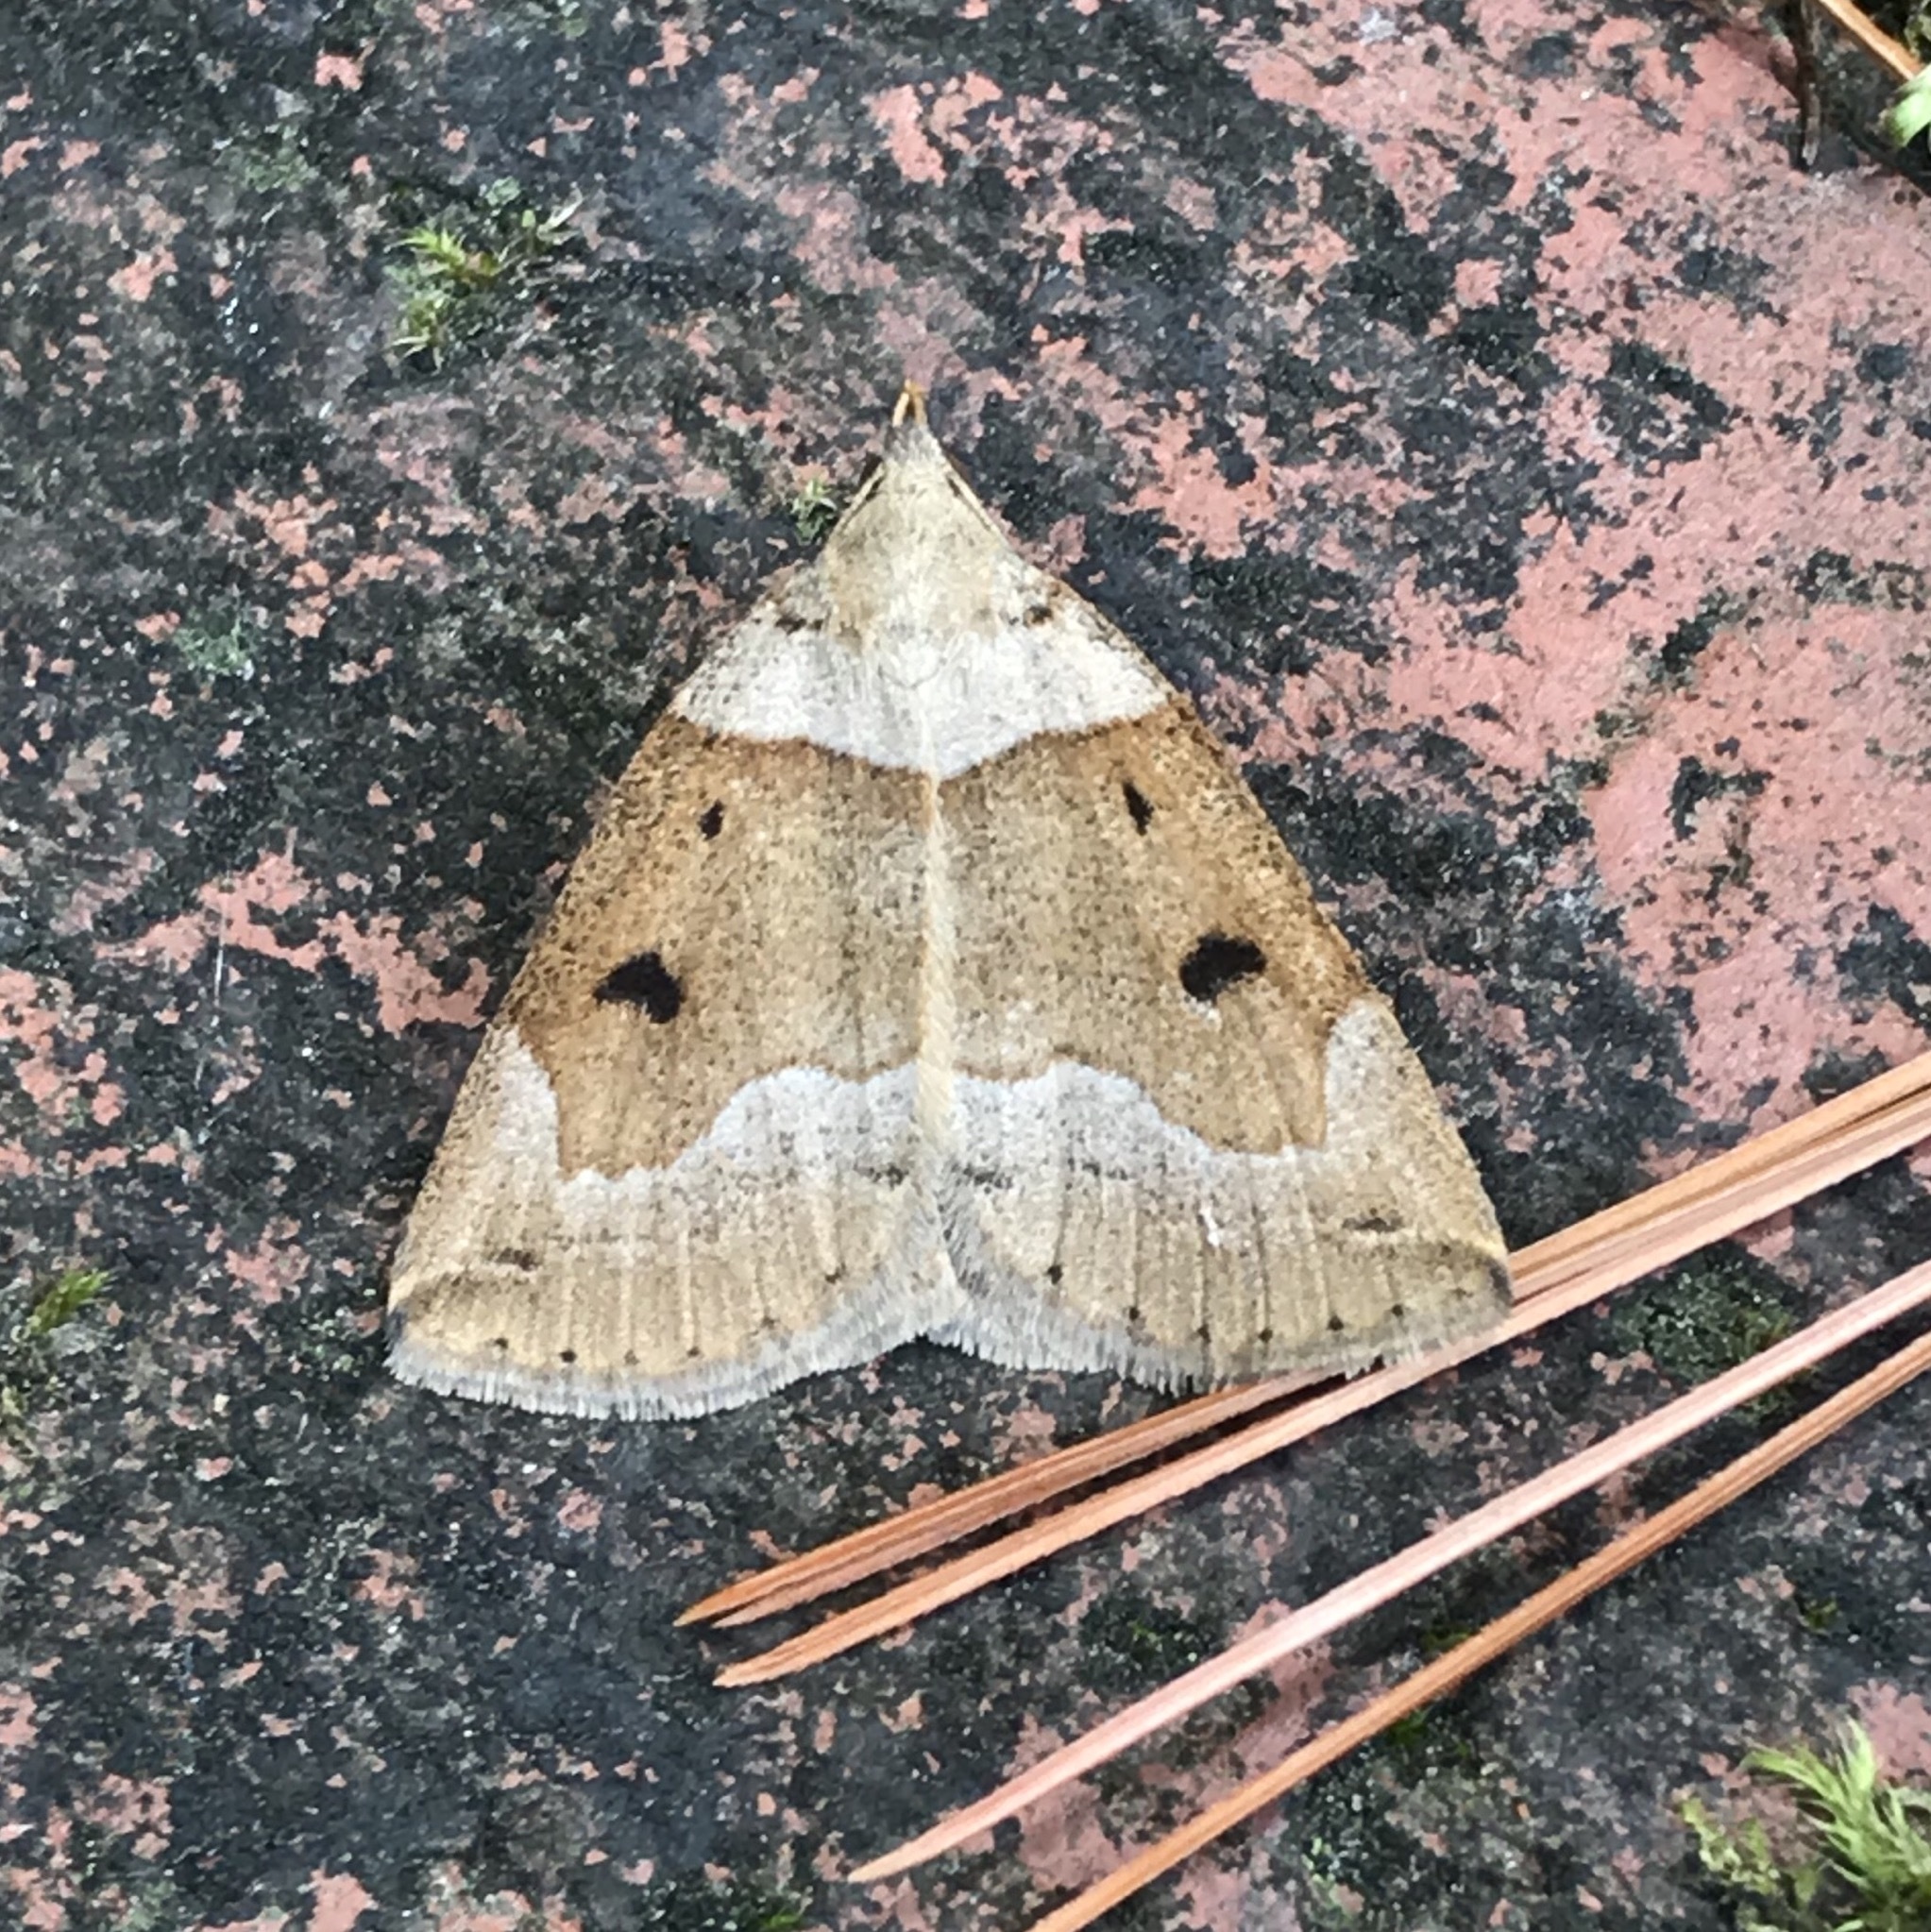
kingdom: Animalia
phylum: Arthropoda
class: Insecta
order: Lepidoptera
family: Erebidae
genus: Zanclognatha
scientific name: Zanclognatha laevigata
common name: Variable fan-foot
